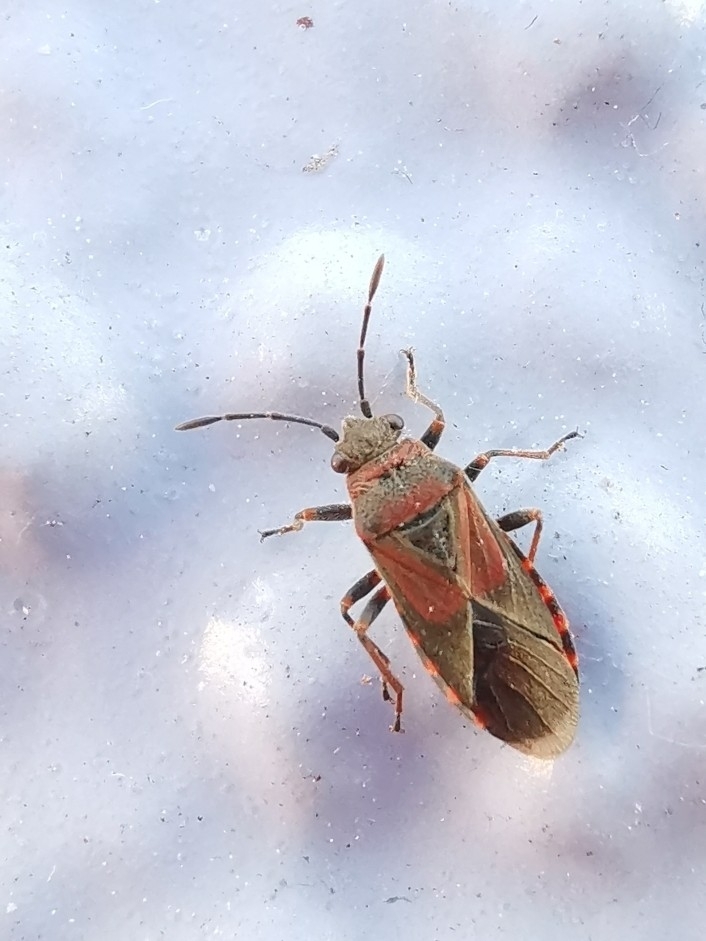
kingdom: Animalia
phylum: Arthropoda
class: Insecta
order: Hemiptera
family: Lygaeidae
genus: Arocatus
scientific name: Arocatus melanocephalus
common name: Lygaeid bug
